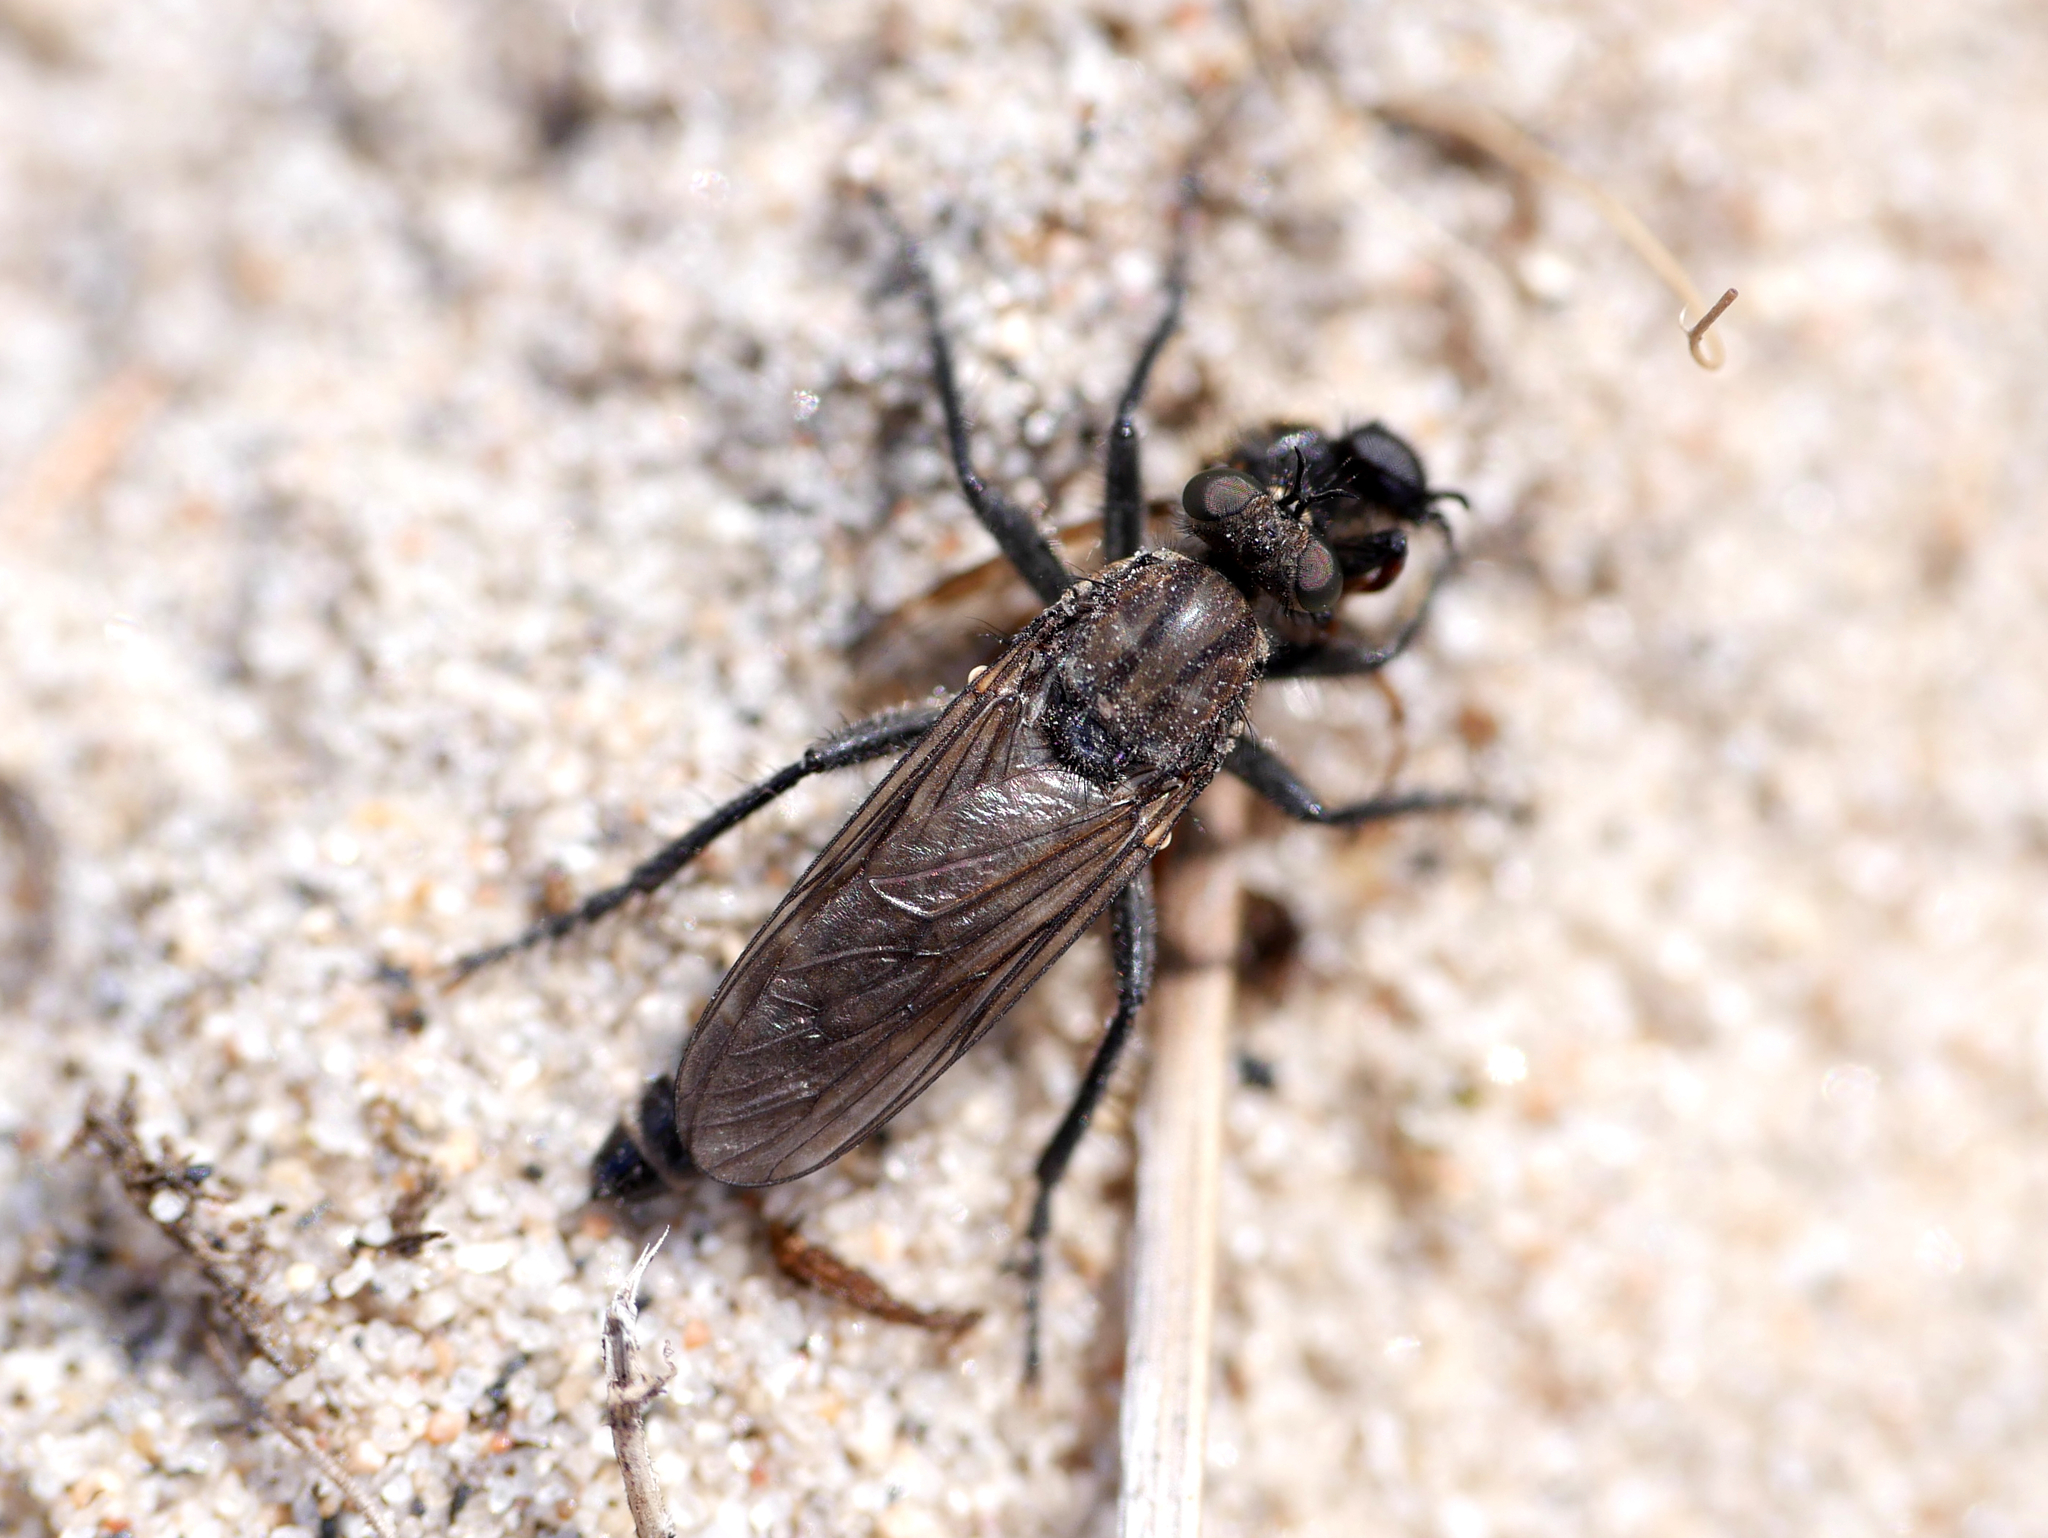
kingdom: Animalia
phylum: Arthropoda
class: Insecta
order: Diptera
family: Asilidae
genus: Lasiopogon
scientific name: Lasiopogon cinctus
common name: Spring heath robberfly
